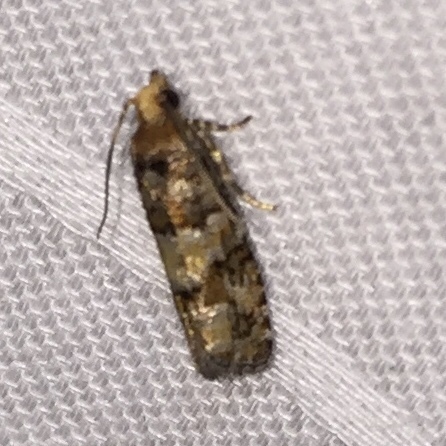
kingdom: Animalia
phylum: Arthropoda
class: Insecta
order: Lepidoptera
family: Tortricidae
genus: Eucopina
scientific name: Eucopina tocullionana
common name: White pinecone borer moth
